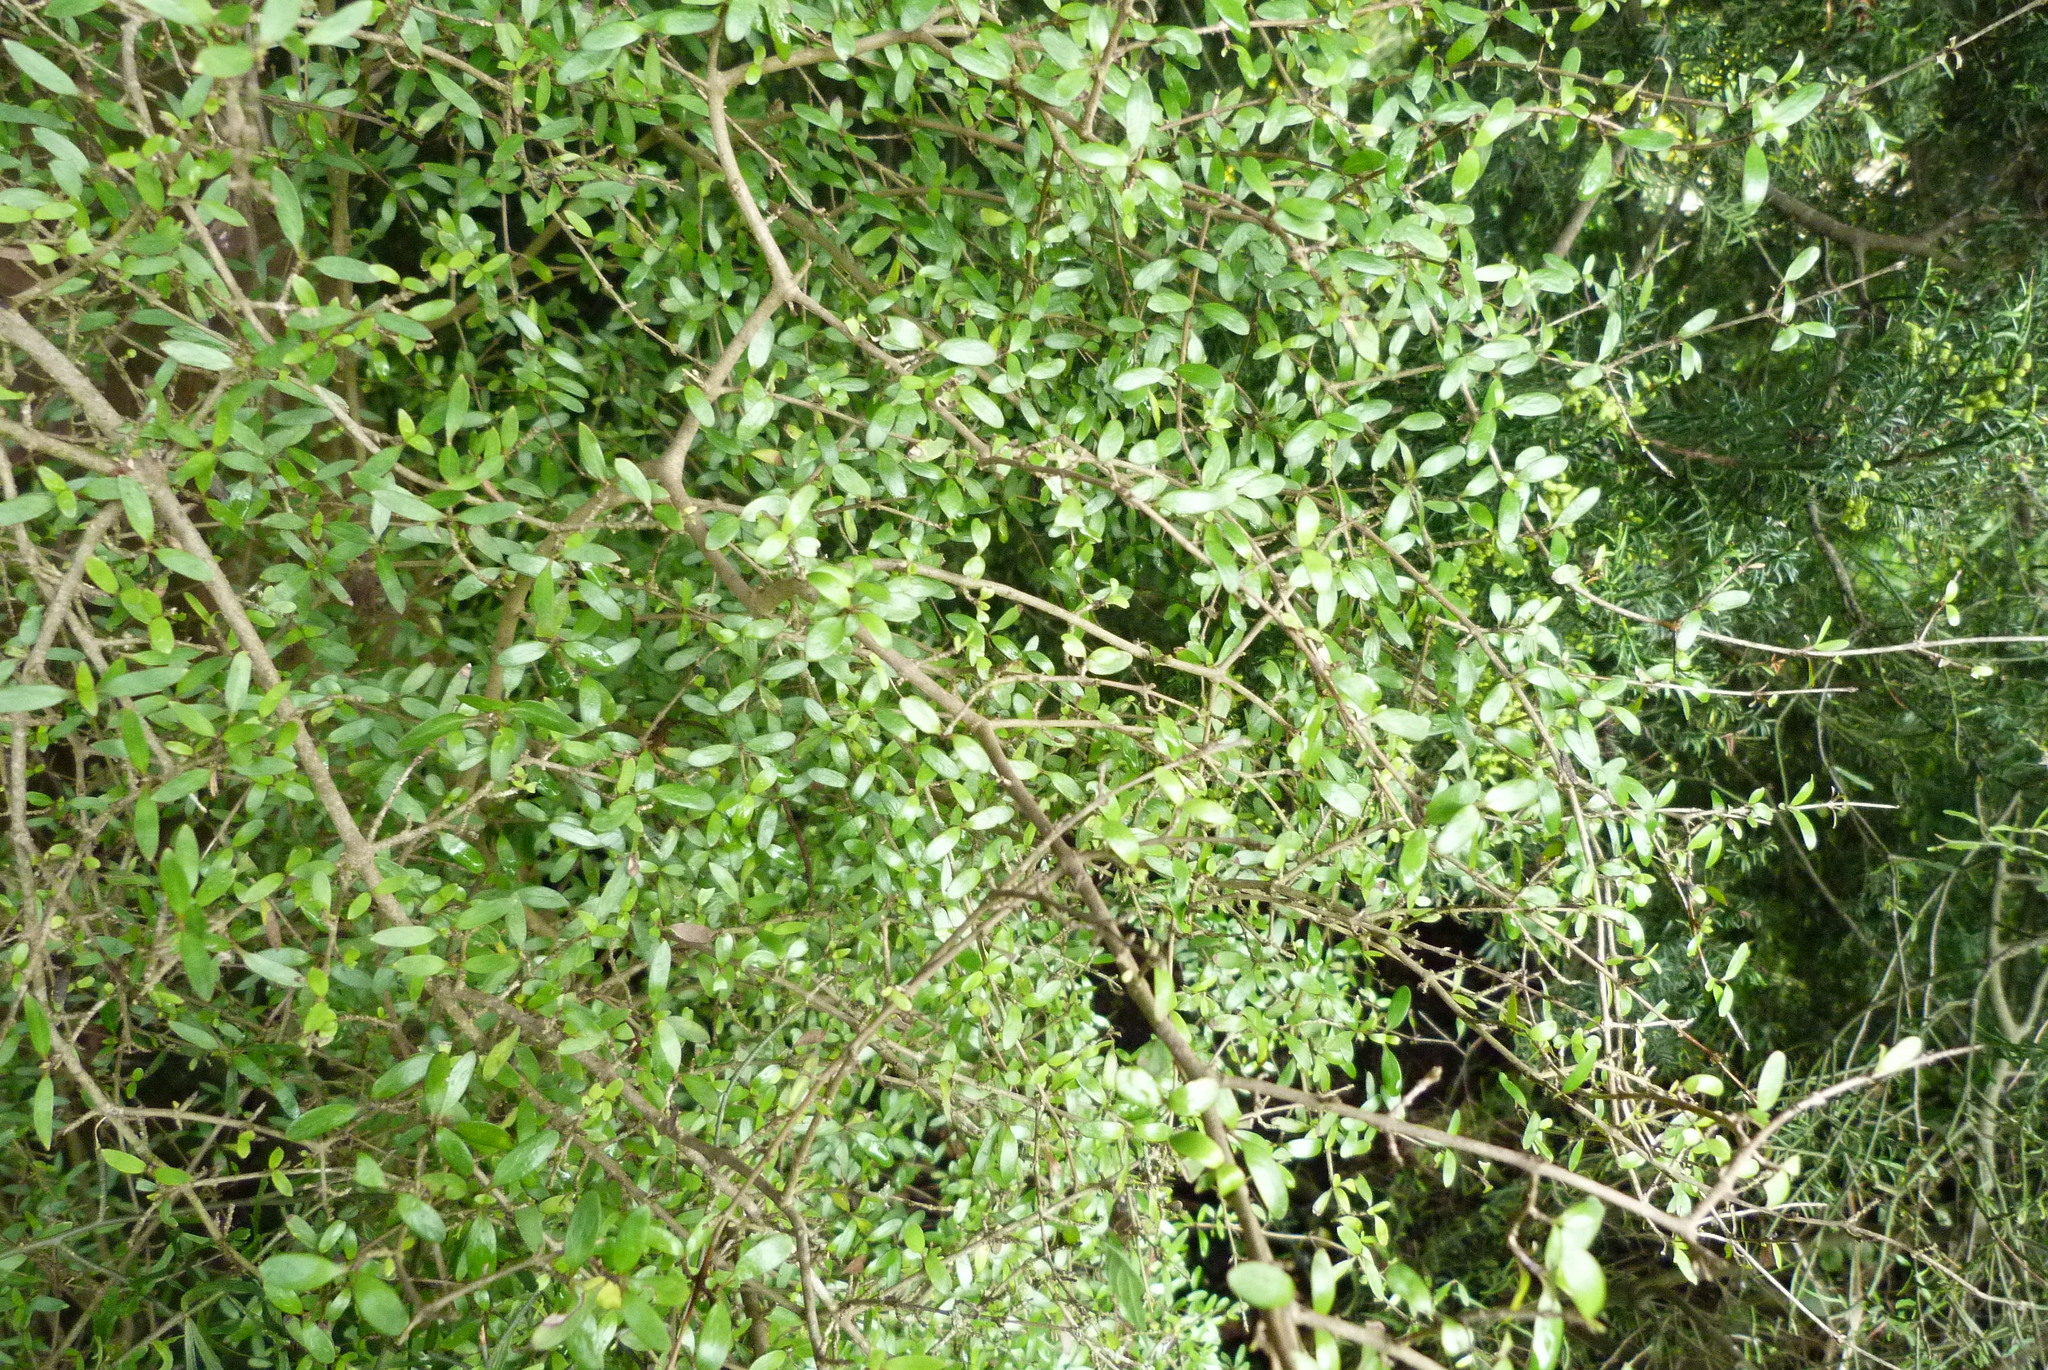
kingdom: Plantae
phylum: Tracheophyta
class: Magnoliopsida
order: Gentianales
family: Rubiaceae
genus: Coprosma
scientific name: Coprosma propinqua
